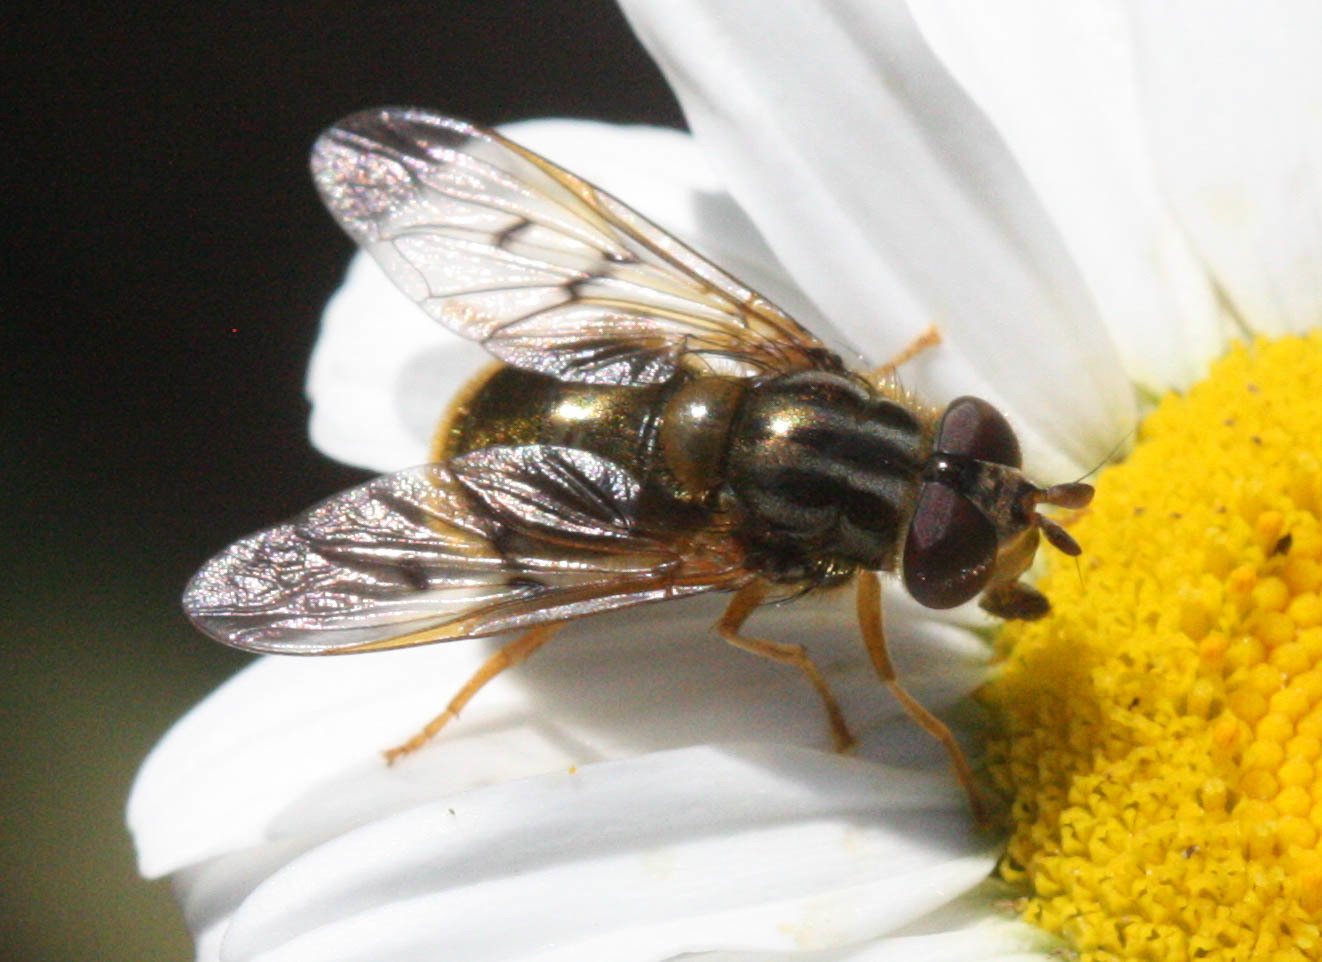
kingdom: Animalia
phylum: Arthropoda
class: Insecta
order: Diptera
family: Syrphidae
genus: Ferdinandea
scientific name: Ferdinandea croesus
